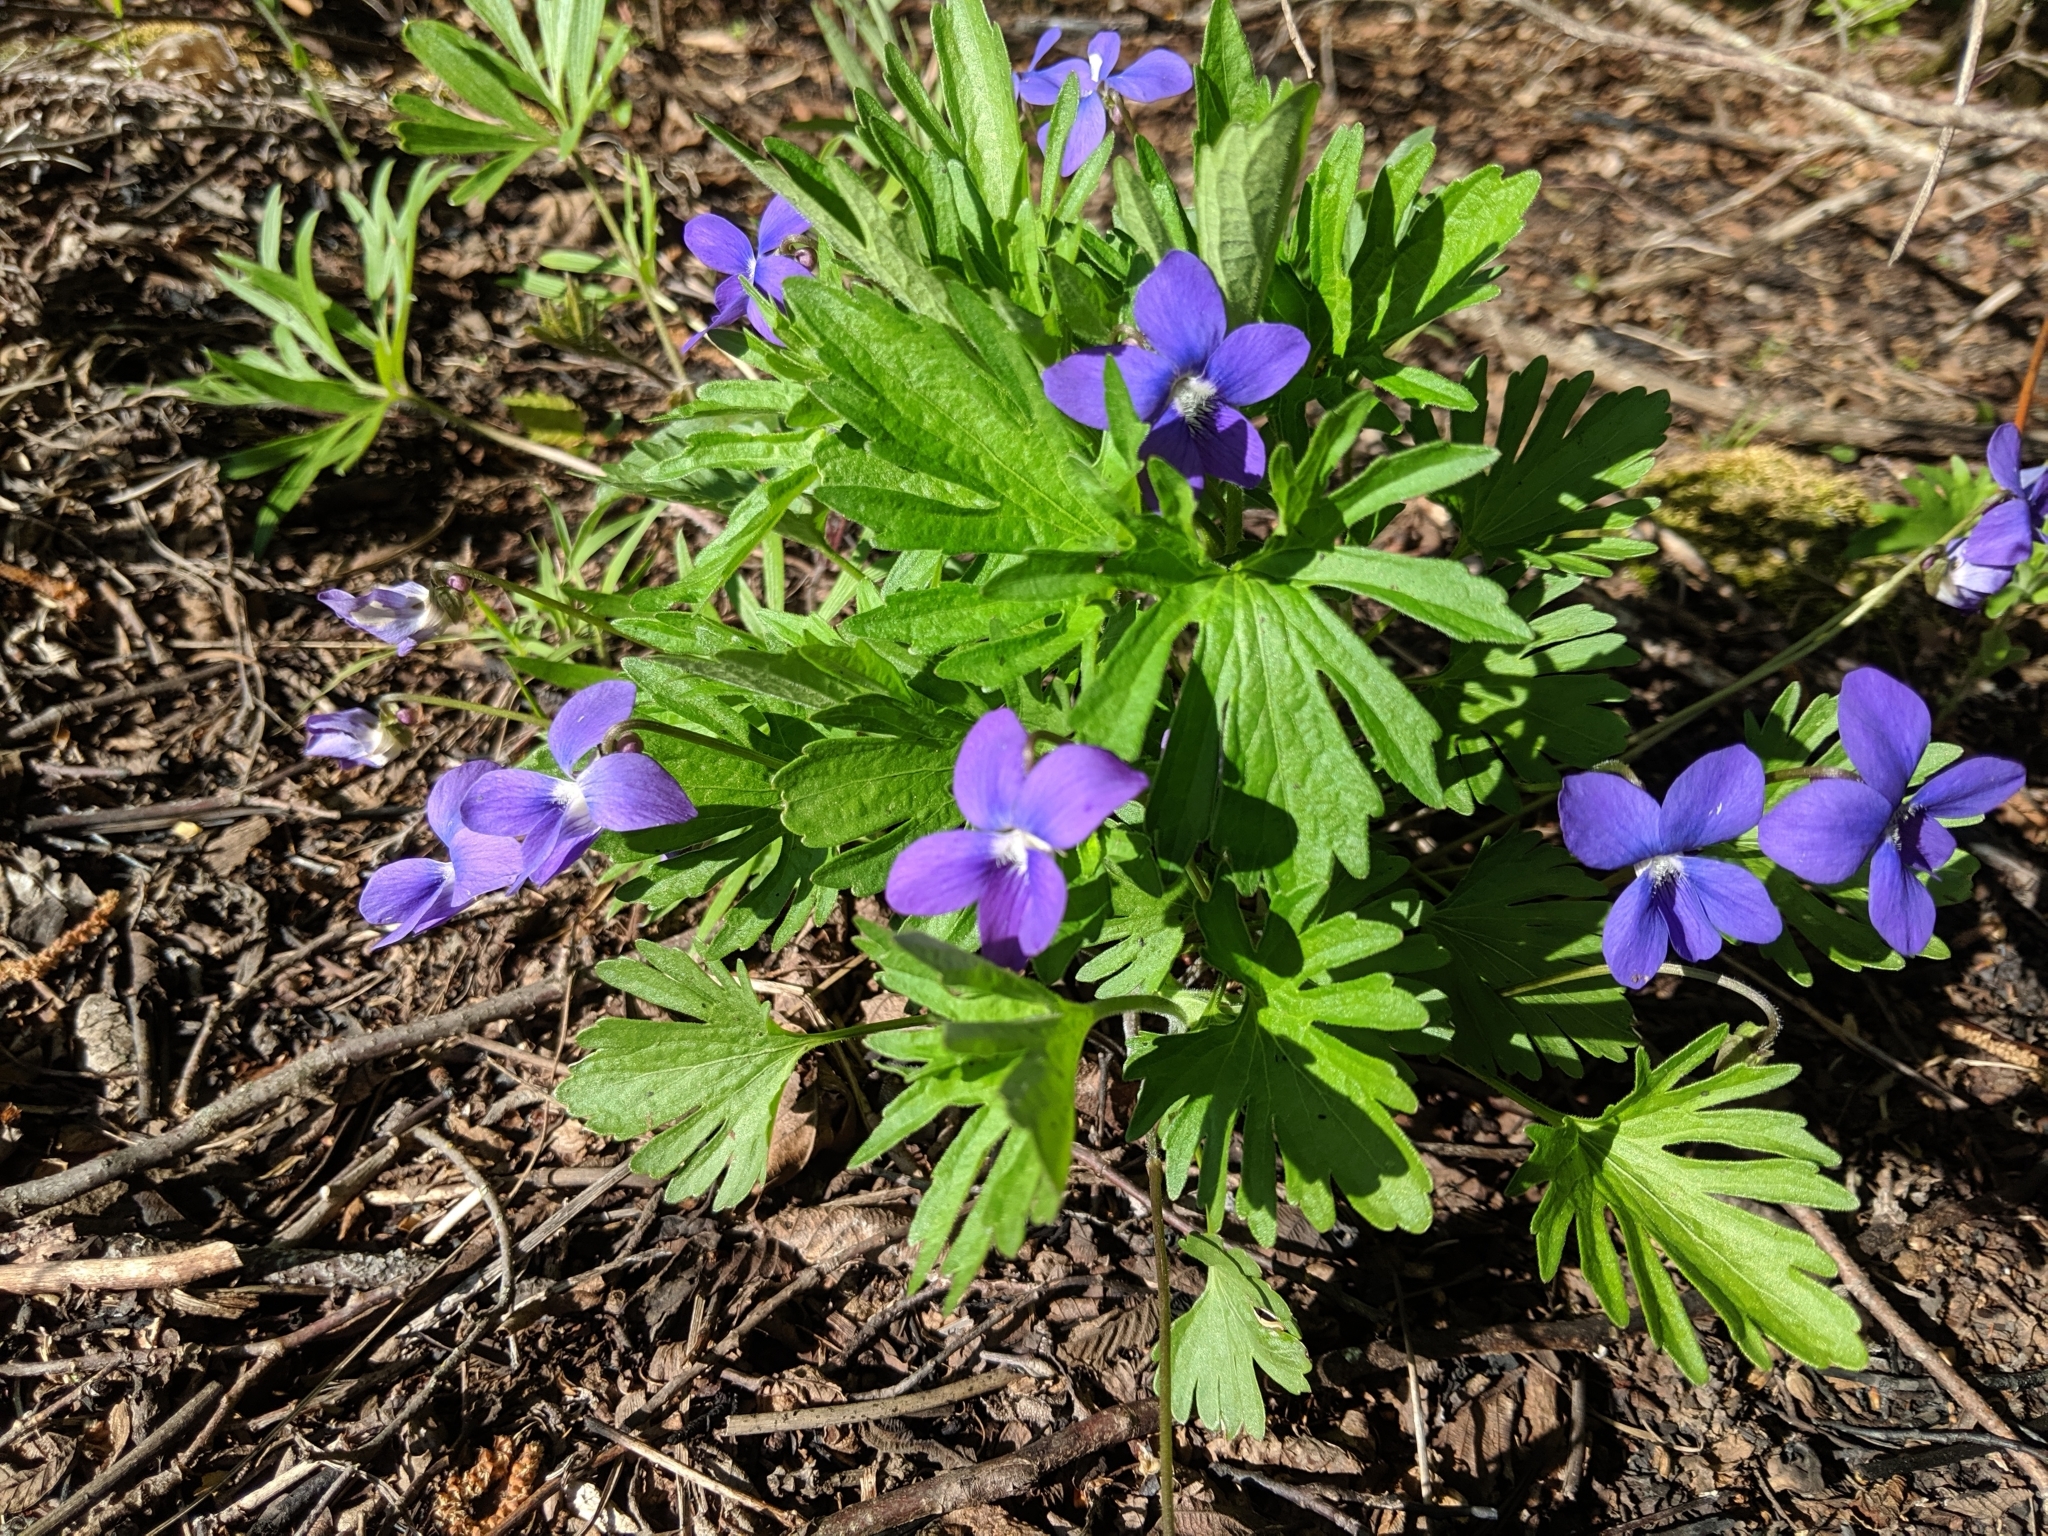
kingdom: Plantae
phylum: Tracheophyta
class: Magnoliopsida
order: Malpighiales
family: Violaceae
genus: Viola
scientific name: Viola pedatifida
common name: Prairie violet
